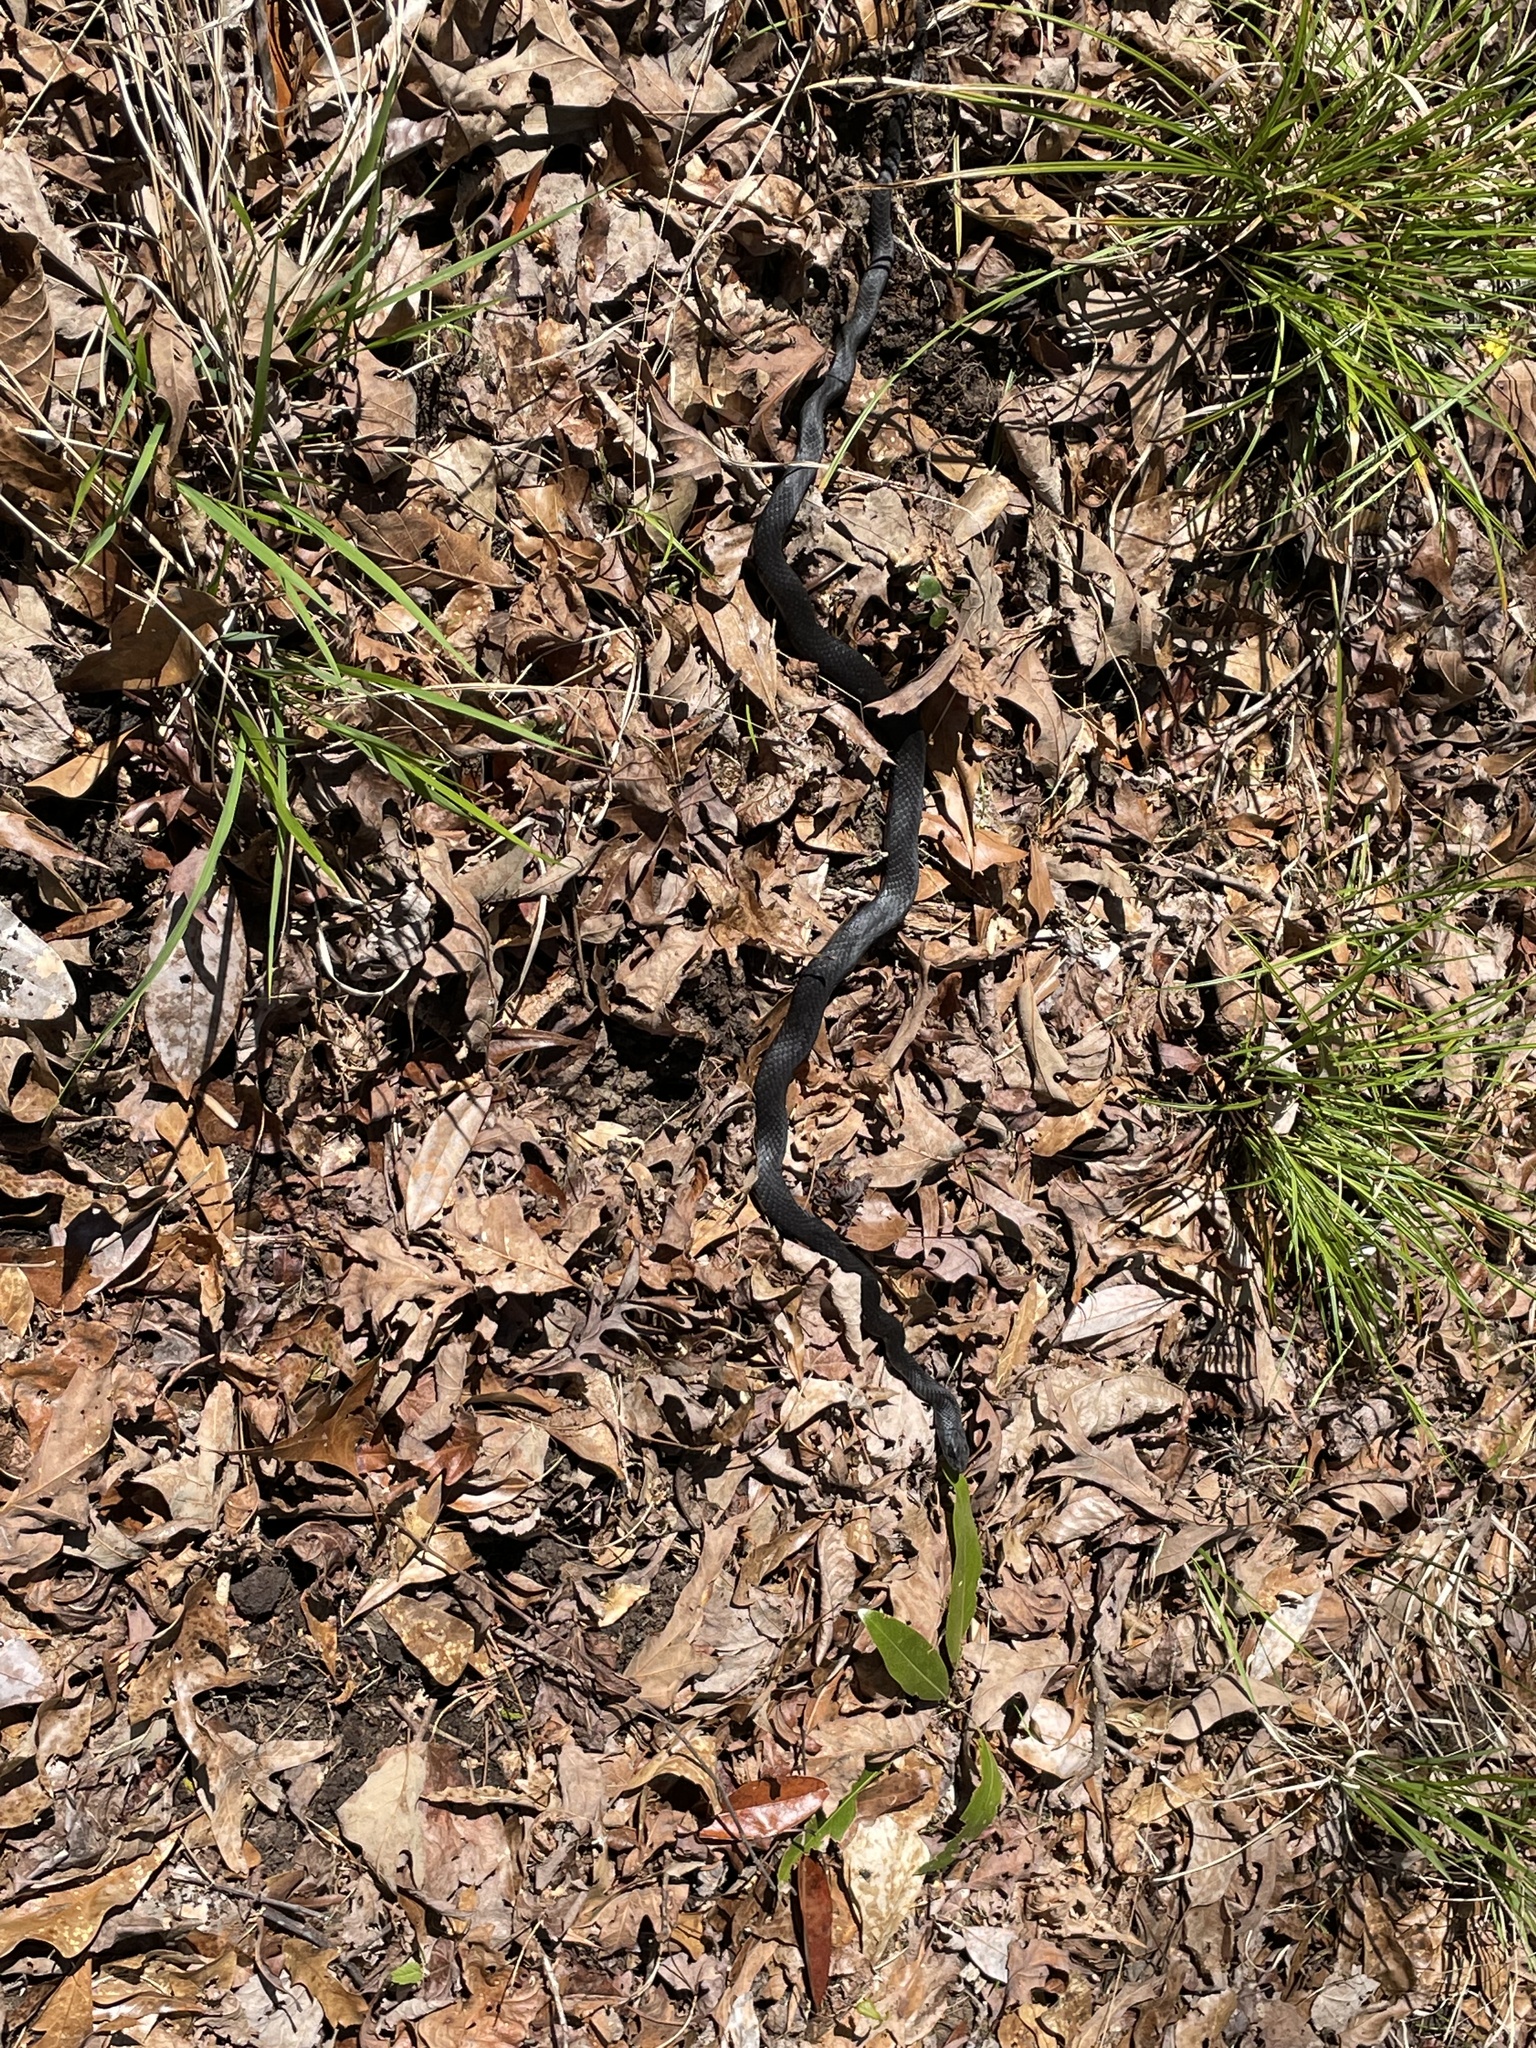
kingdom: Animalia
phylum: Chordata
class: Squamata
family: Colubridae
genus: Coluber
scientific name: Coluber constrictor
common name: Eastern racer
